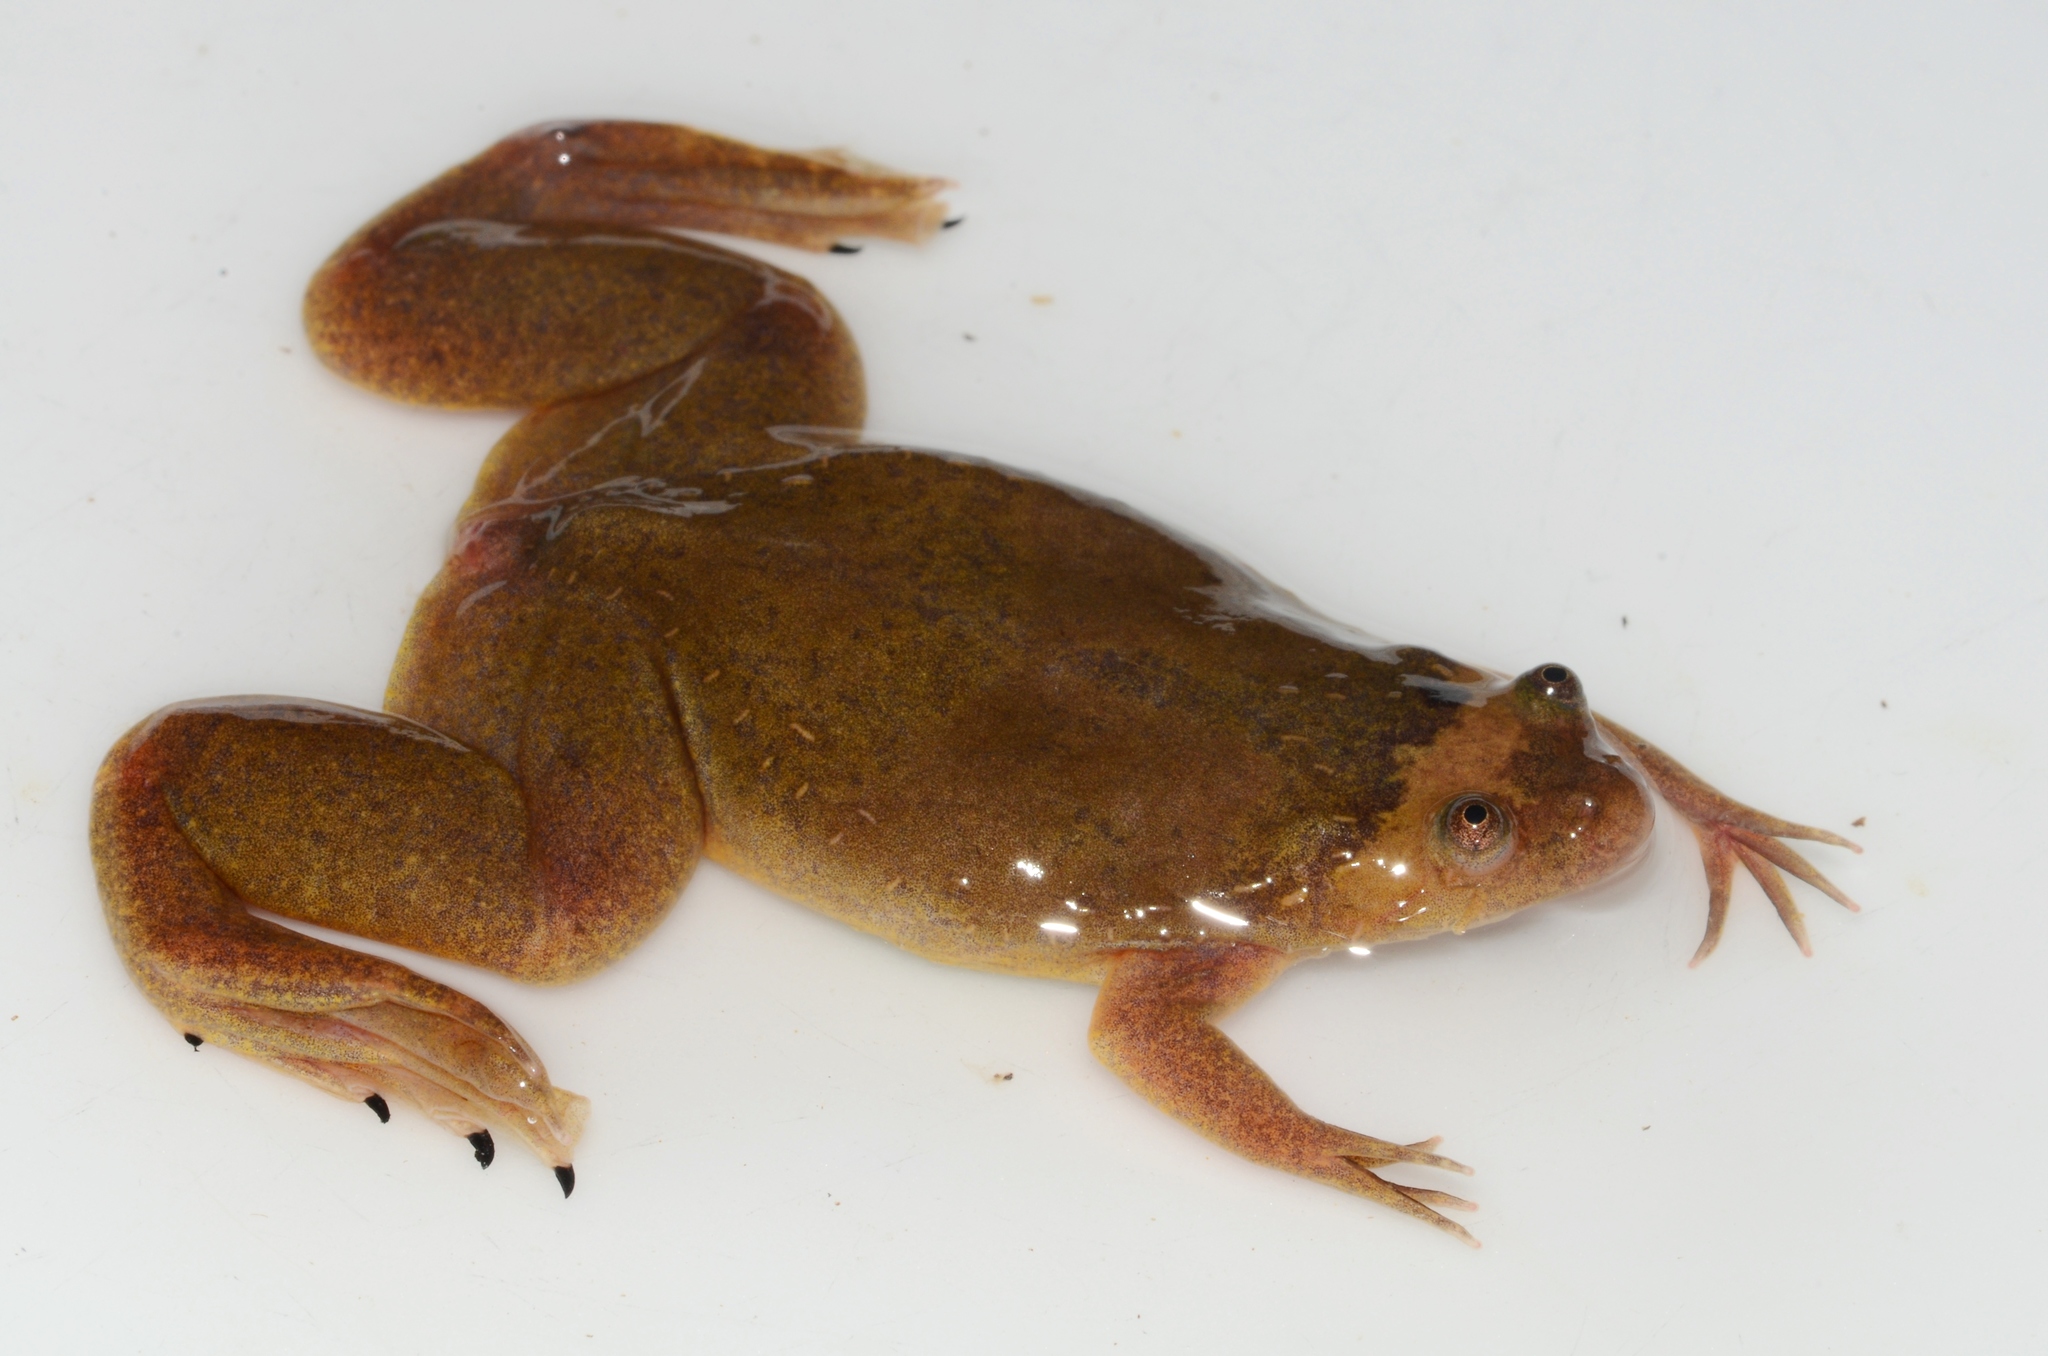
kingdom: Animalia
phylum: Chordata
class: Amphibia
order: Anura
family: Pipidae
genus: Xenopus
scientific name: Xenopus parafraseri
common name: Upland clawed frog
